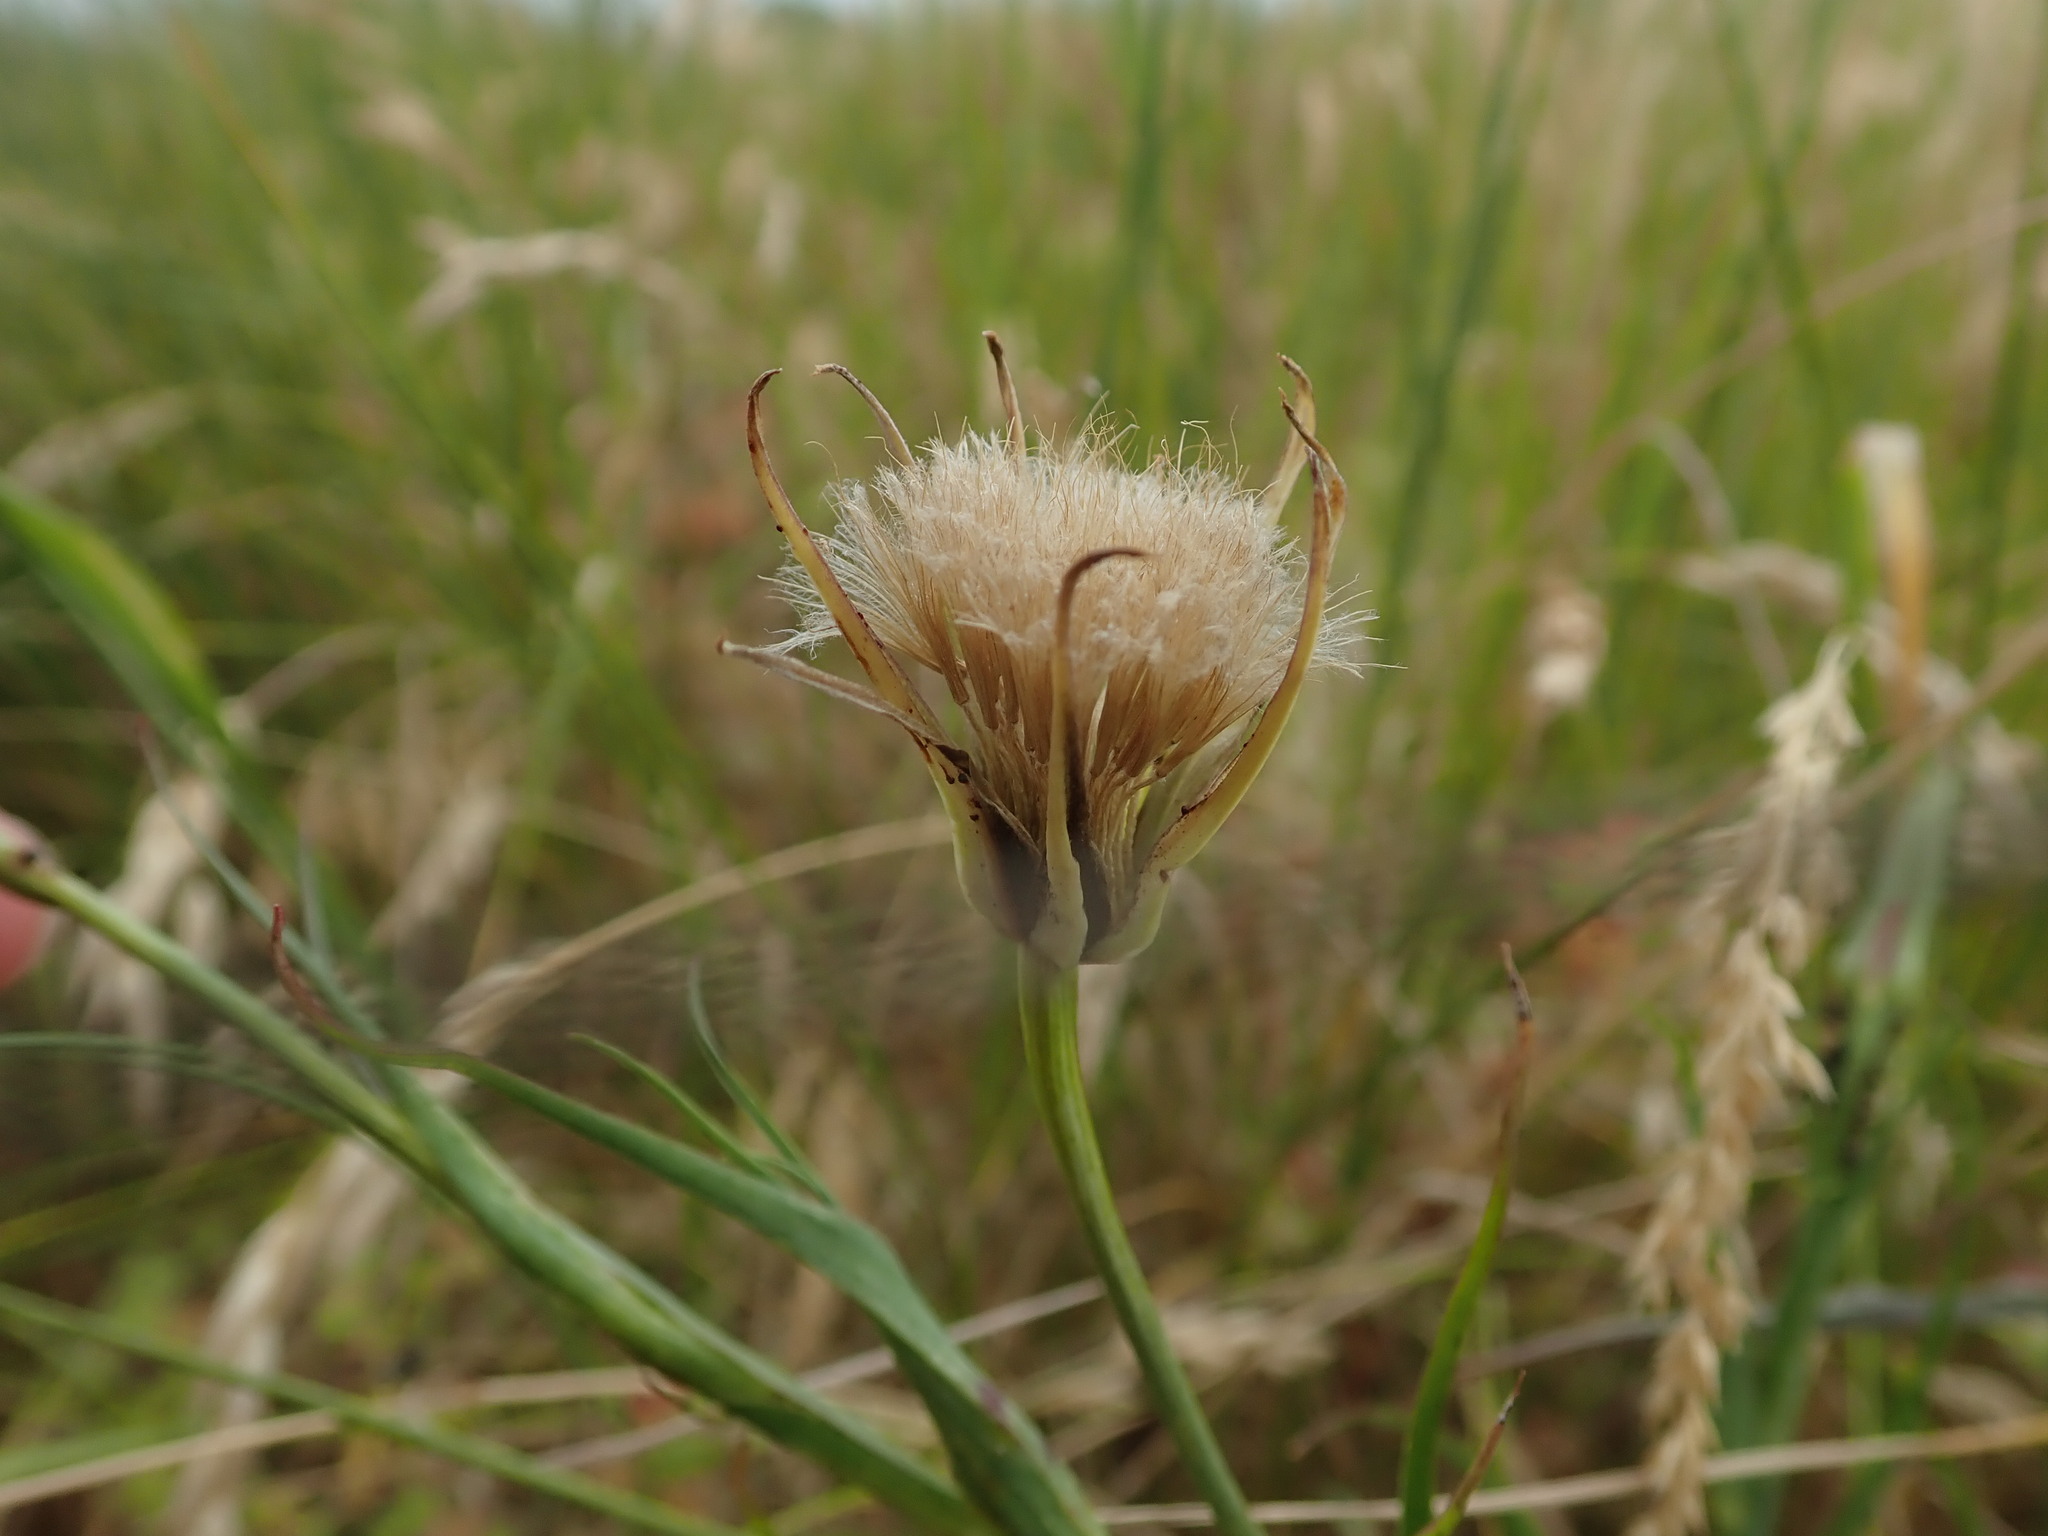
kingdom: Plantae
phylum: Tracheophyta
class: Magnoliopsida
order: Asterales
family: Asteraceae
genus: Tragopogon
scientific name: Tragopogon pratensis
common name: Goat's-beard
